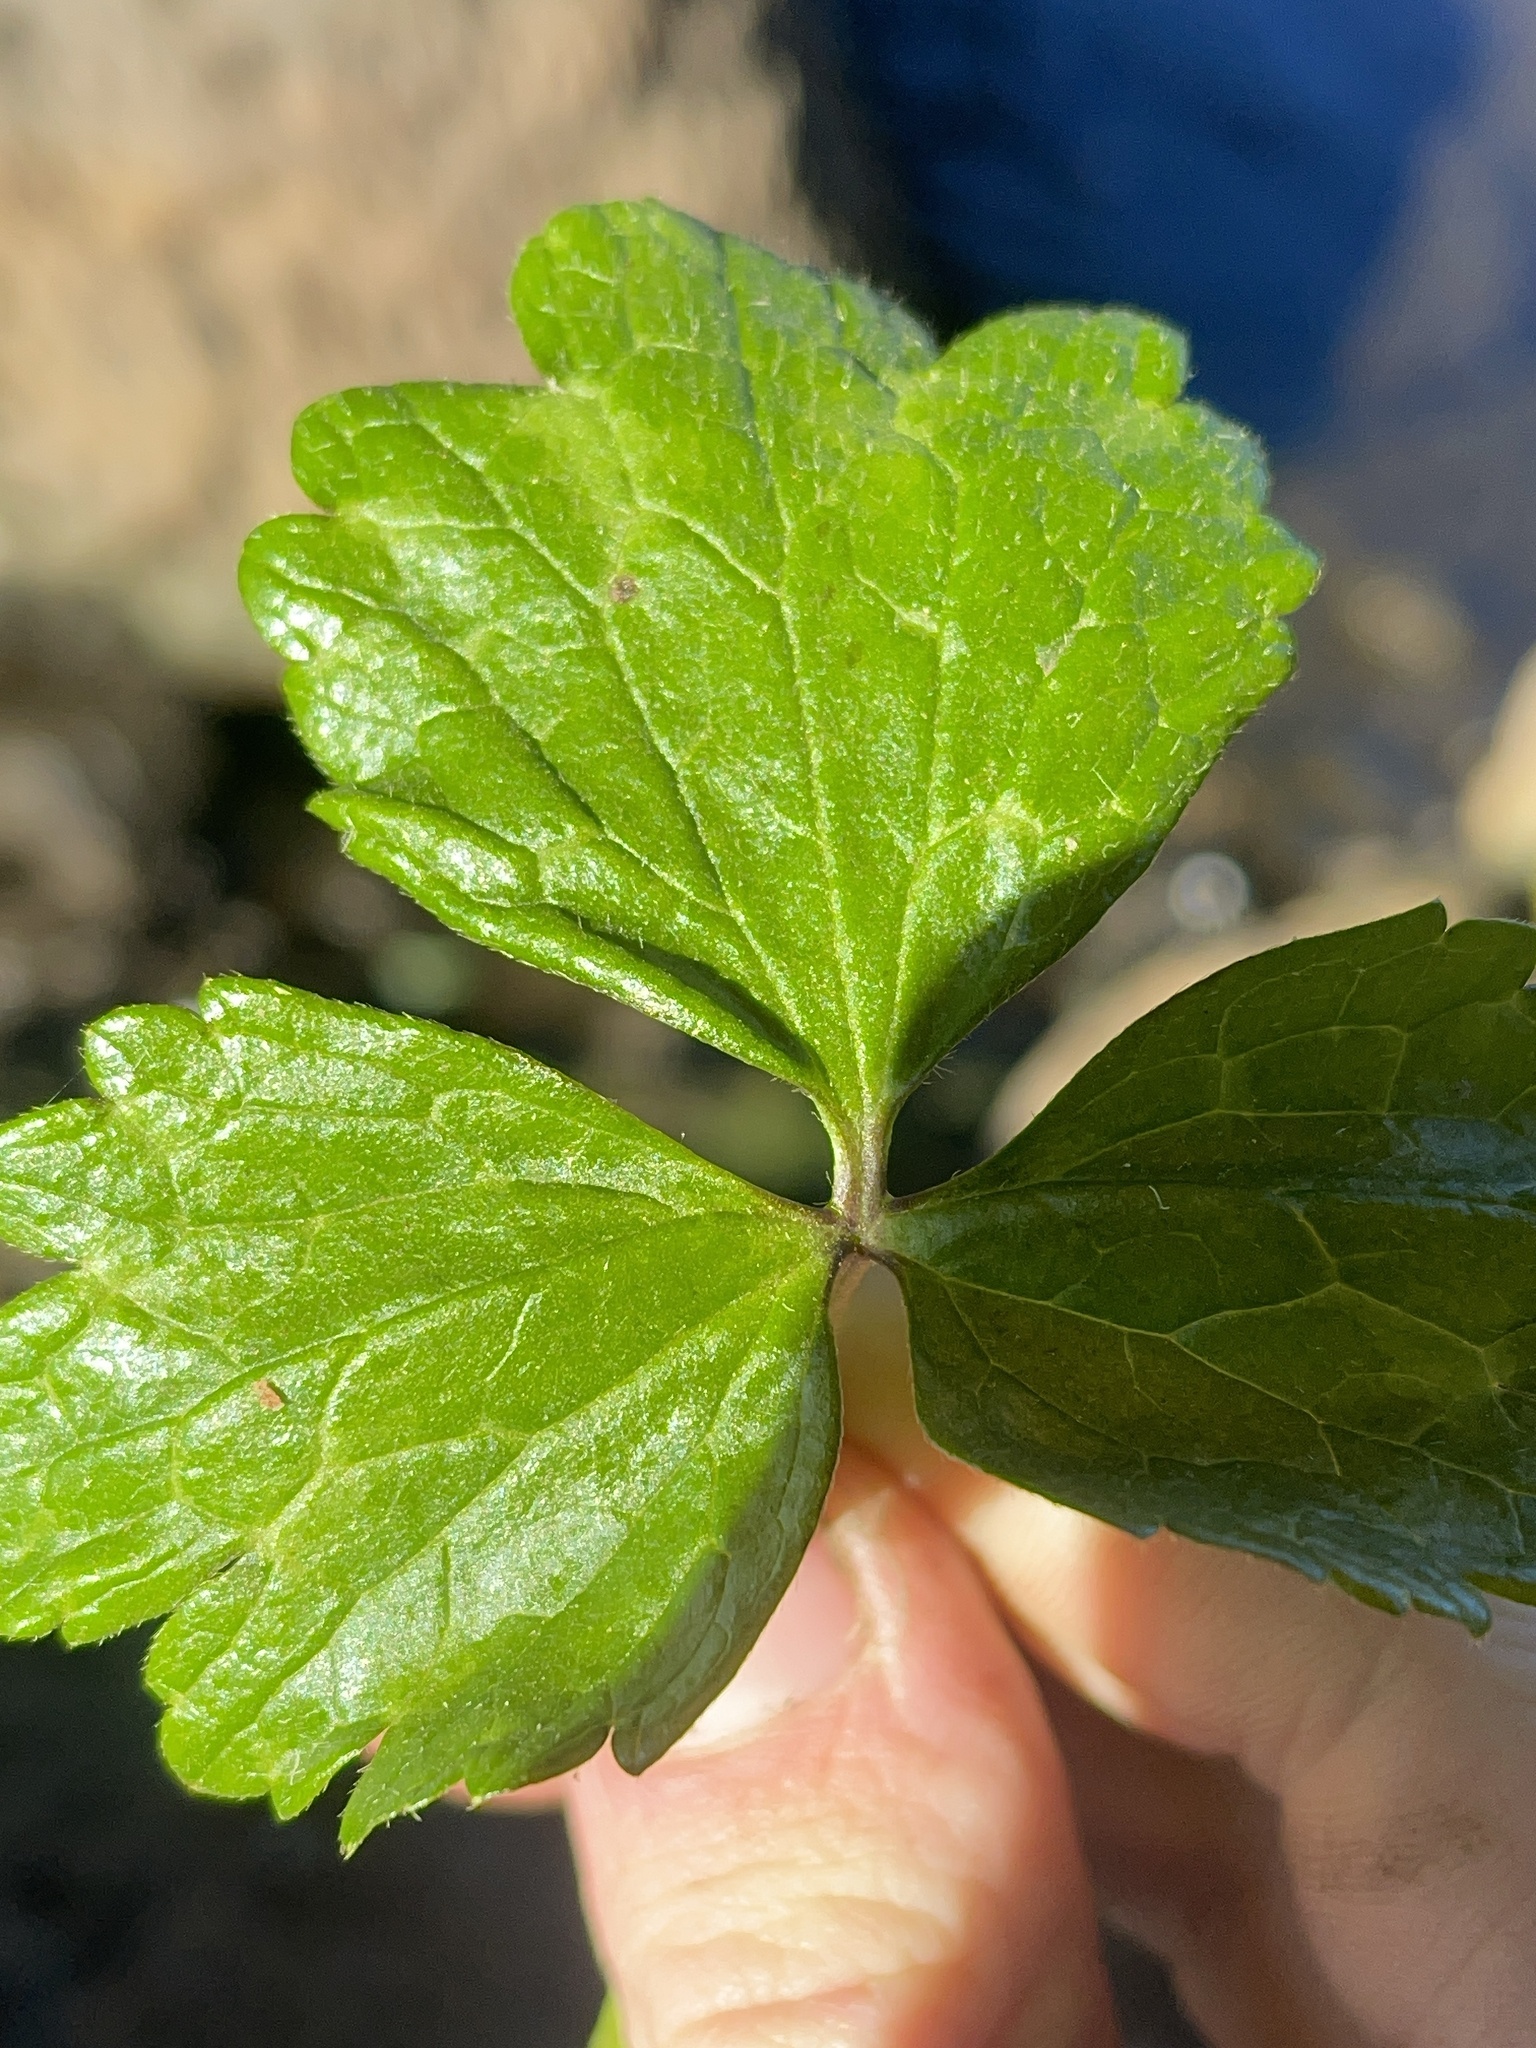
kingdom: Plantae
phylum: Tracheophyta
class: Magnoliopsida
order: Ranunculales
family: Ranunculaceae
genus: Ranunculus
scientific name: Ranunculus repens
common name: Creeping buttercup
